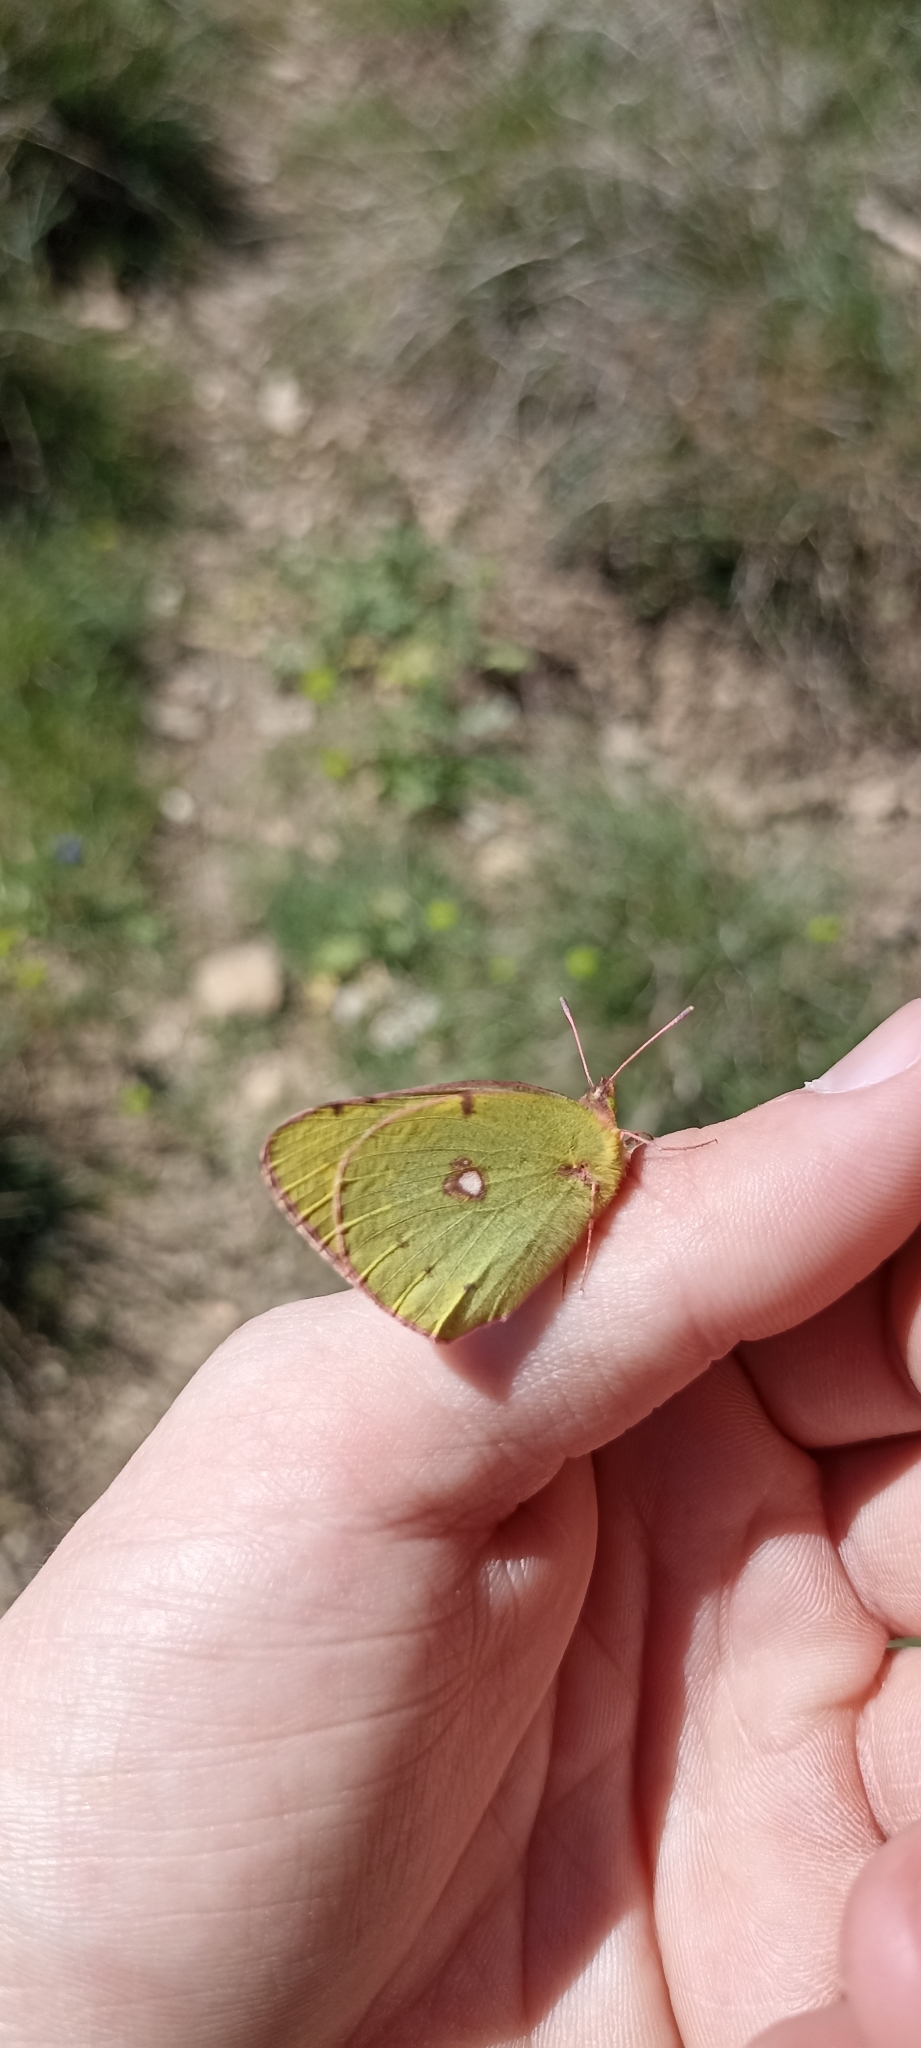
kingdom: Animalia
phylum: Arthropoda
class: Insecta
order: Lepidoptera
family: Pieridae
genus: Colias
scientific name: Colias croceus
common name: Clouded yellow
